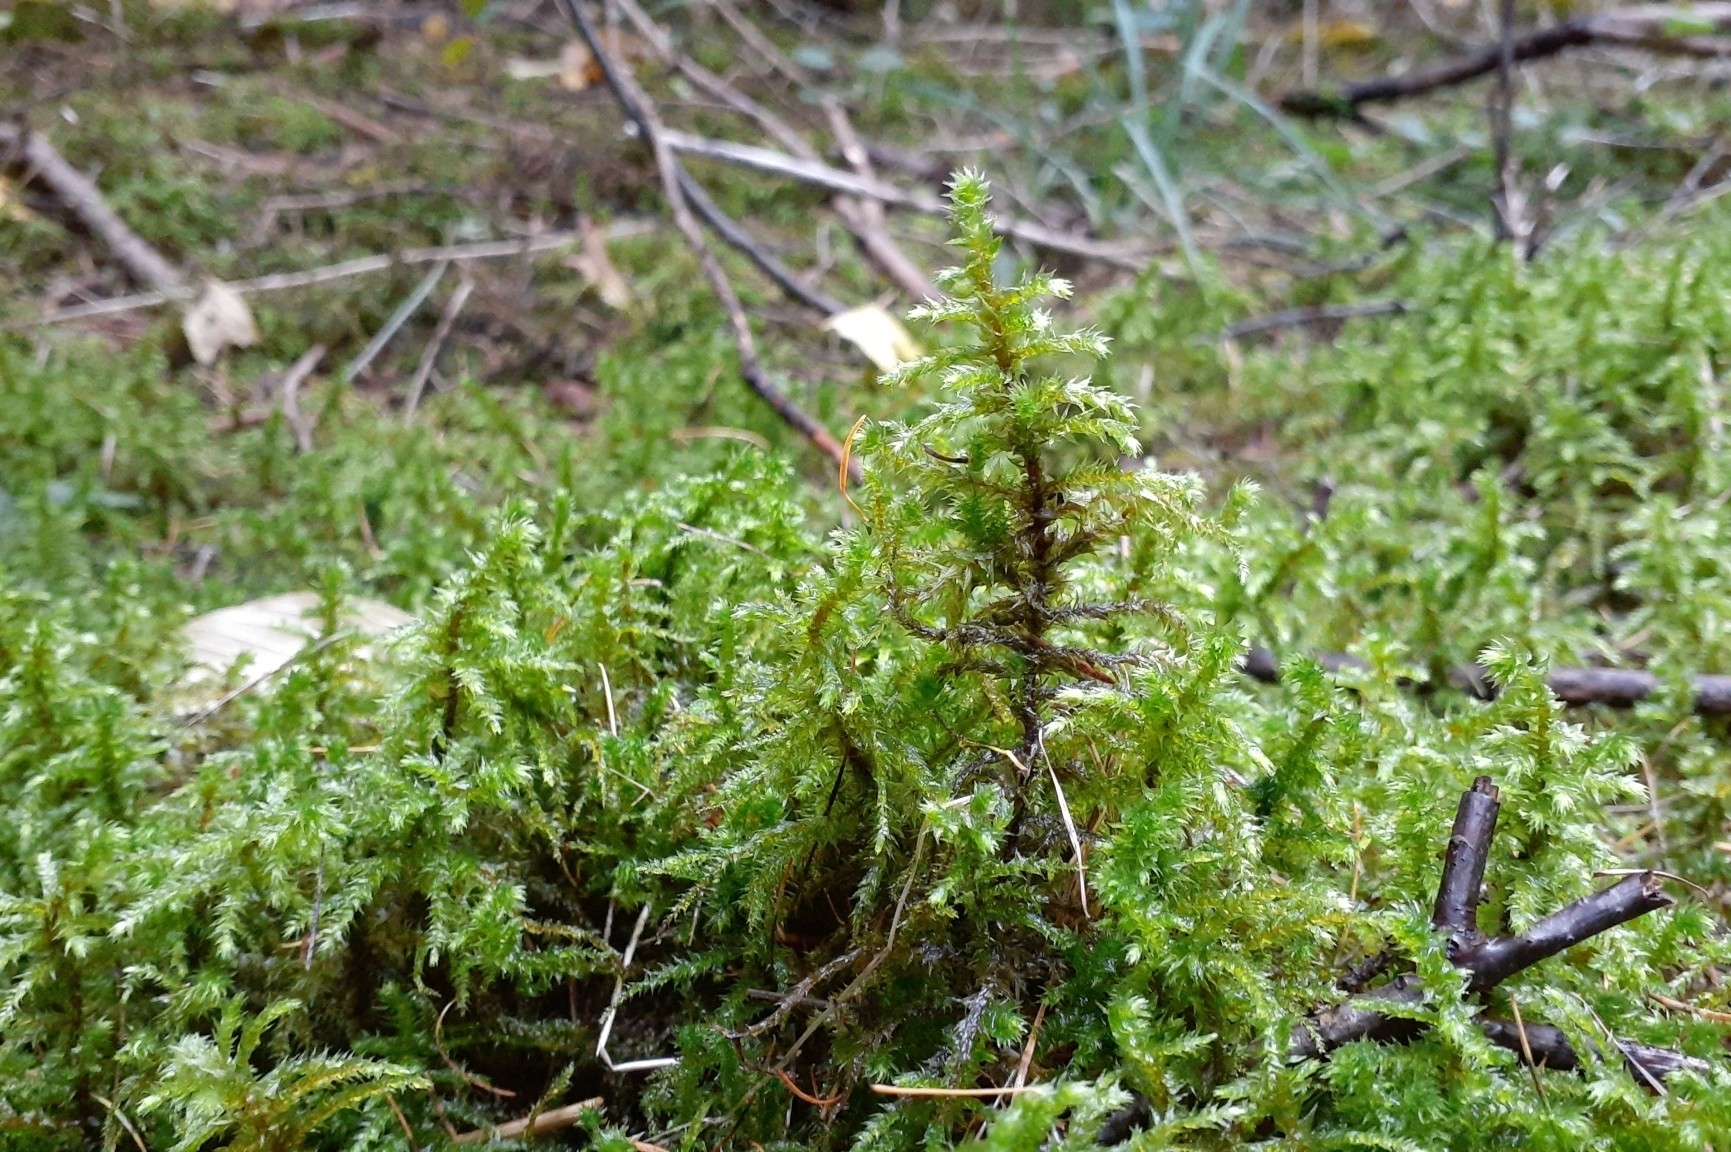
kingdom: Plantae
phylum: Bryophyta
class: Bryopsida
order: Hypnales
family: Hylocomiaceae
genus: Hylocomiadelphus
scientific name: Hylocomiadelphus triquetrus
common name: Rough goose neck moss
